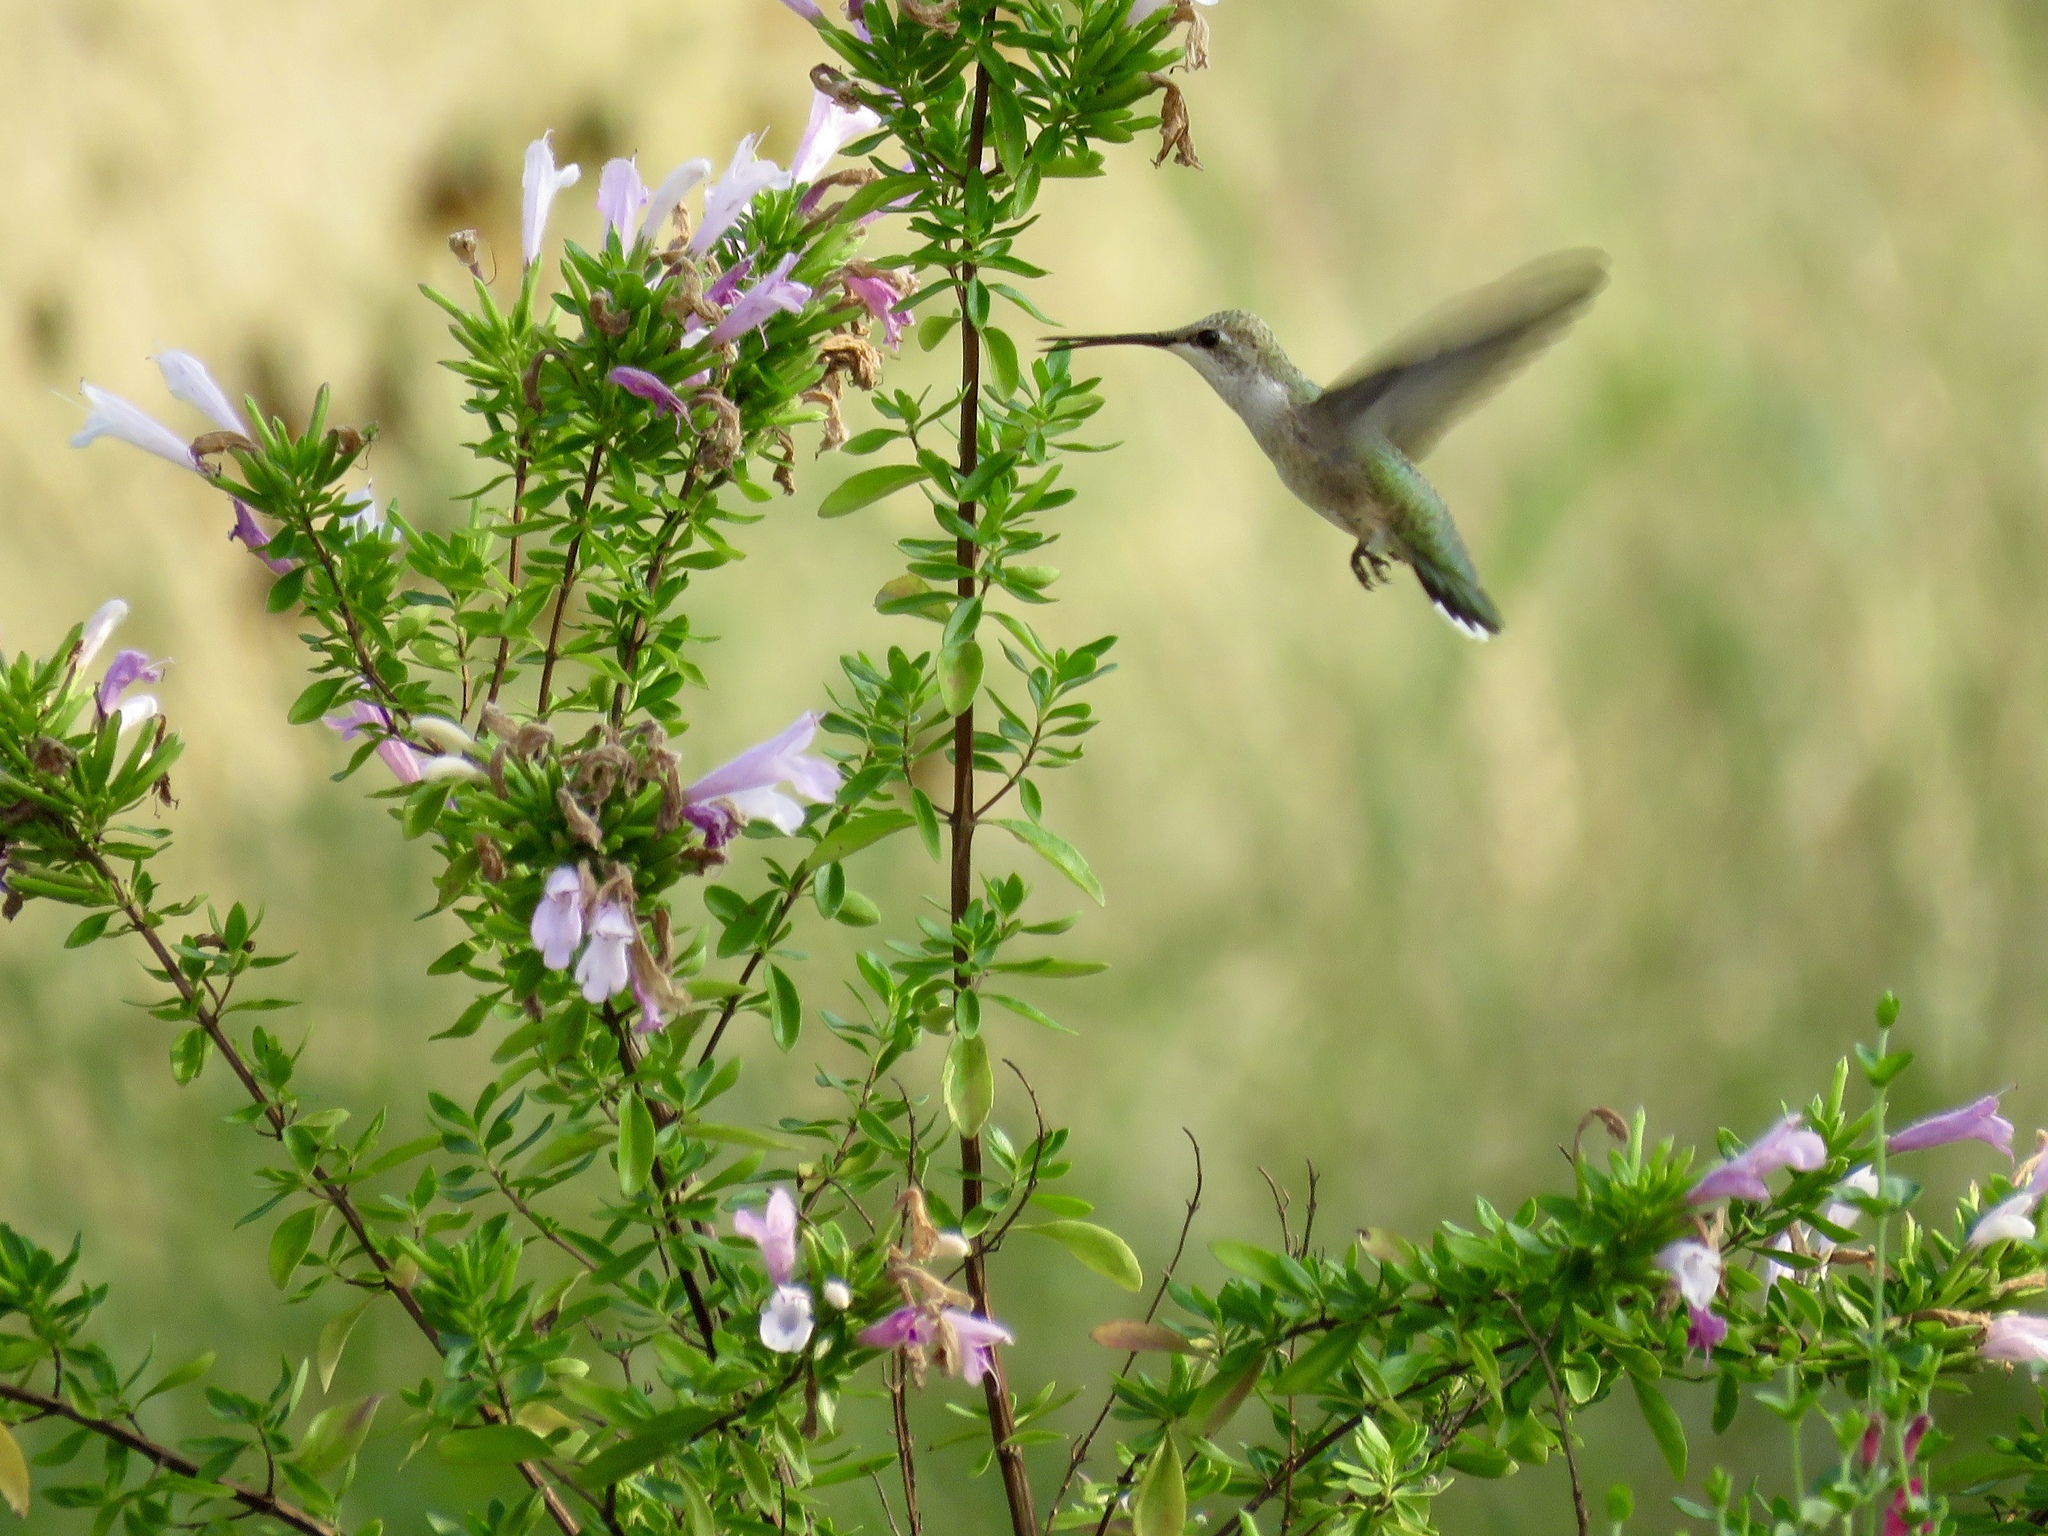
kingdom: Animalia
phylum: Chordata
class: Aves
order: Apodiformes
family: Trochilidae
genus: Archilochus
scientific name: Archilochus colubris
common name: Ruby-throated hummingbird
